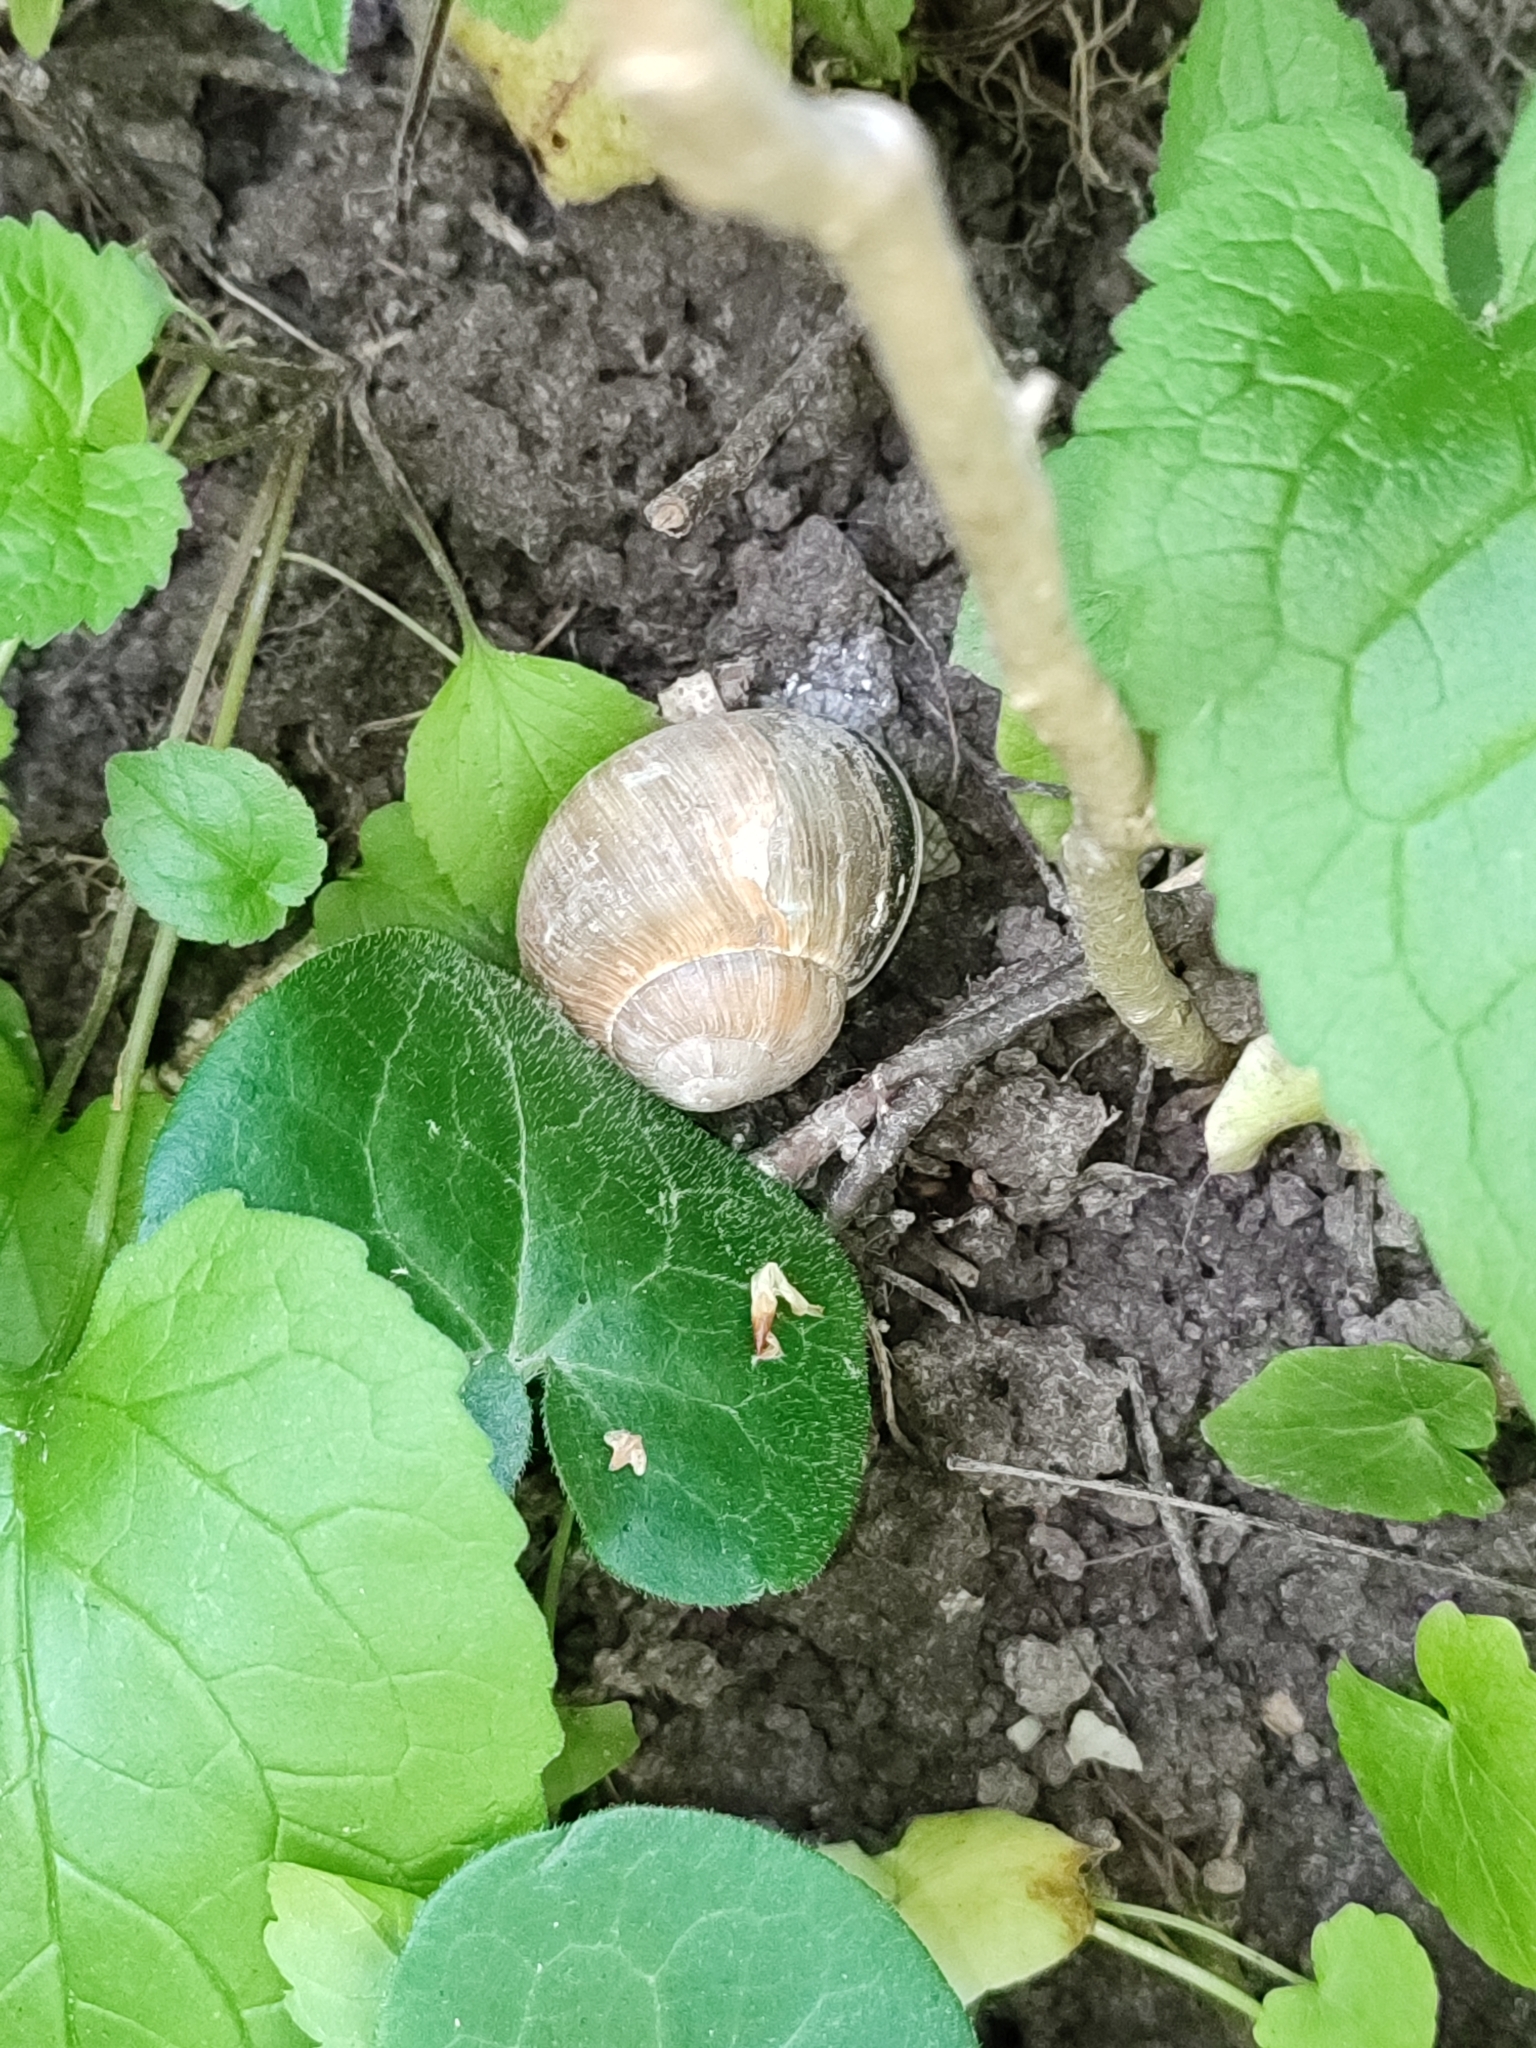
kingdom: Animalia
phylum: Mollusca
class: Gastropoda
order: Stylommatophora
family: Helicidae
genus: Helix
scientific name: Helix pomatia
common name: Roman snail
